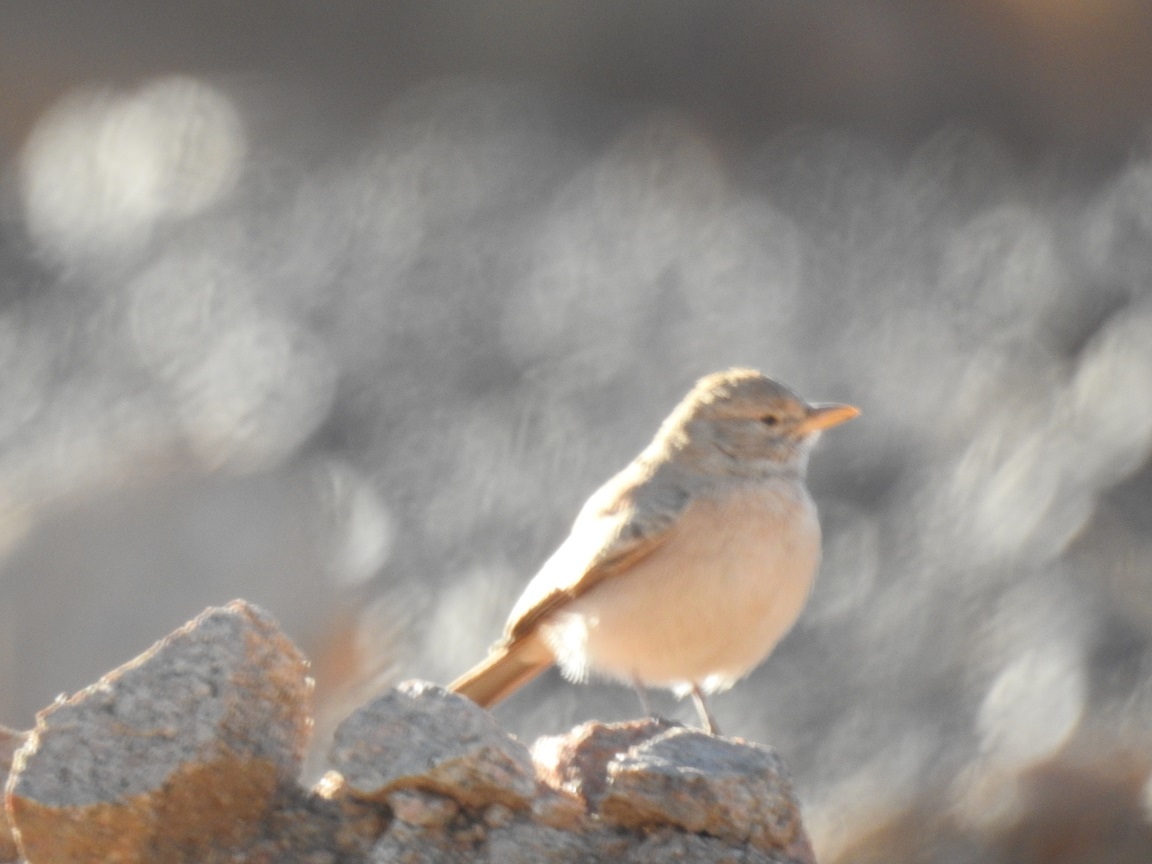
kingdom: Animalia
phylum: Chordata
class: Aves
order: Passeriformes
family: Alaudidae
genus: Ammomanes
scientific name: Ammomanes deserti
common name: Desert lark
